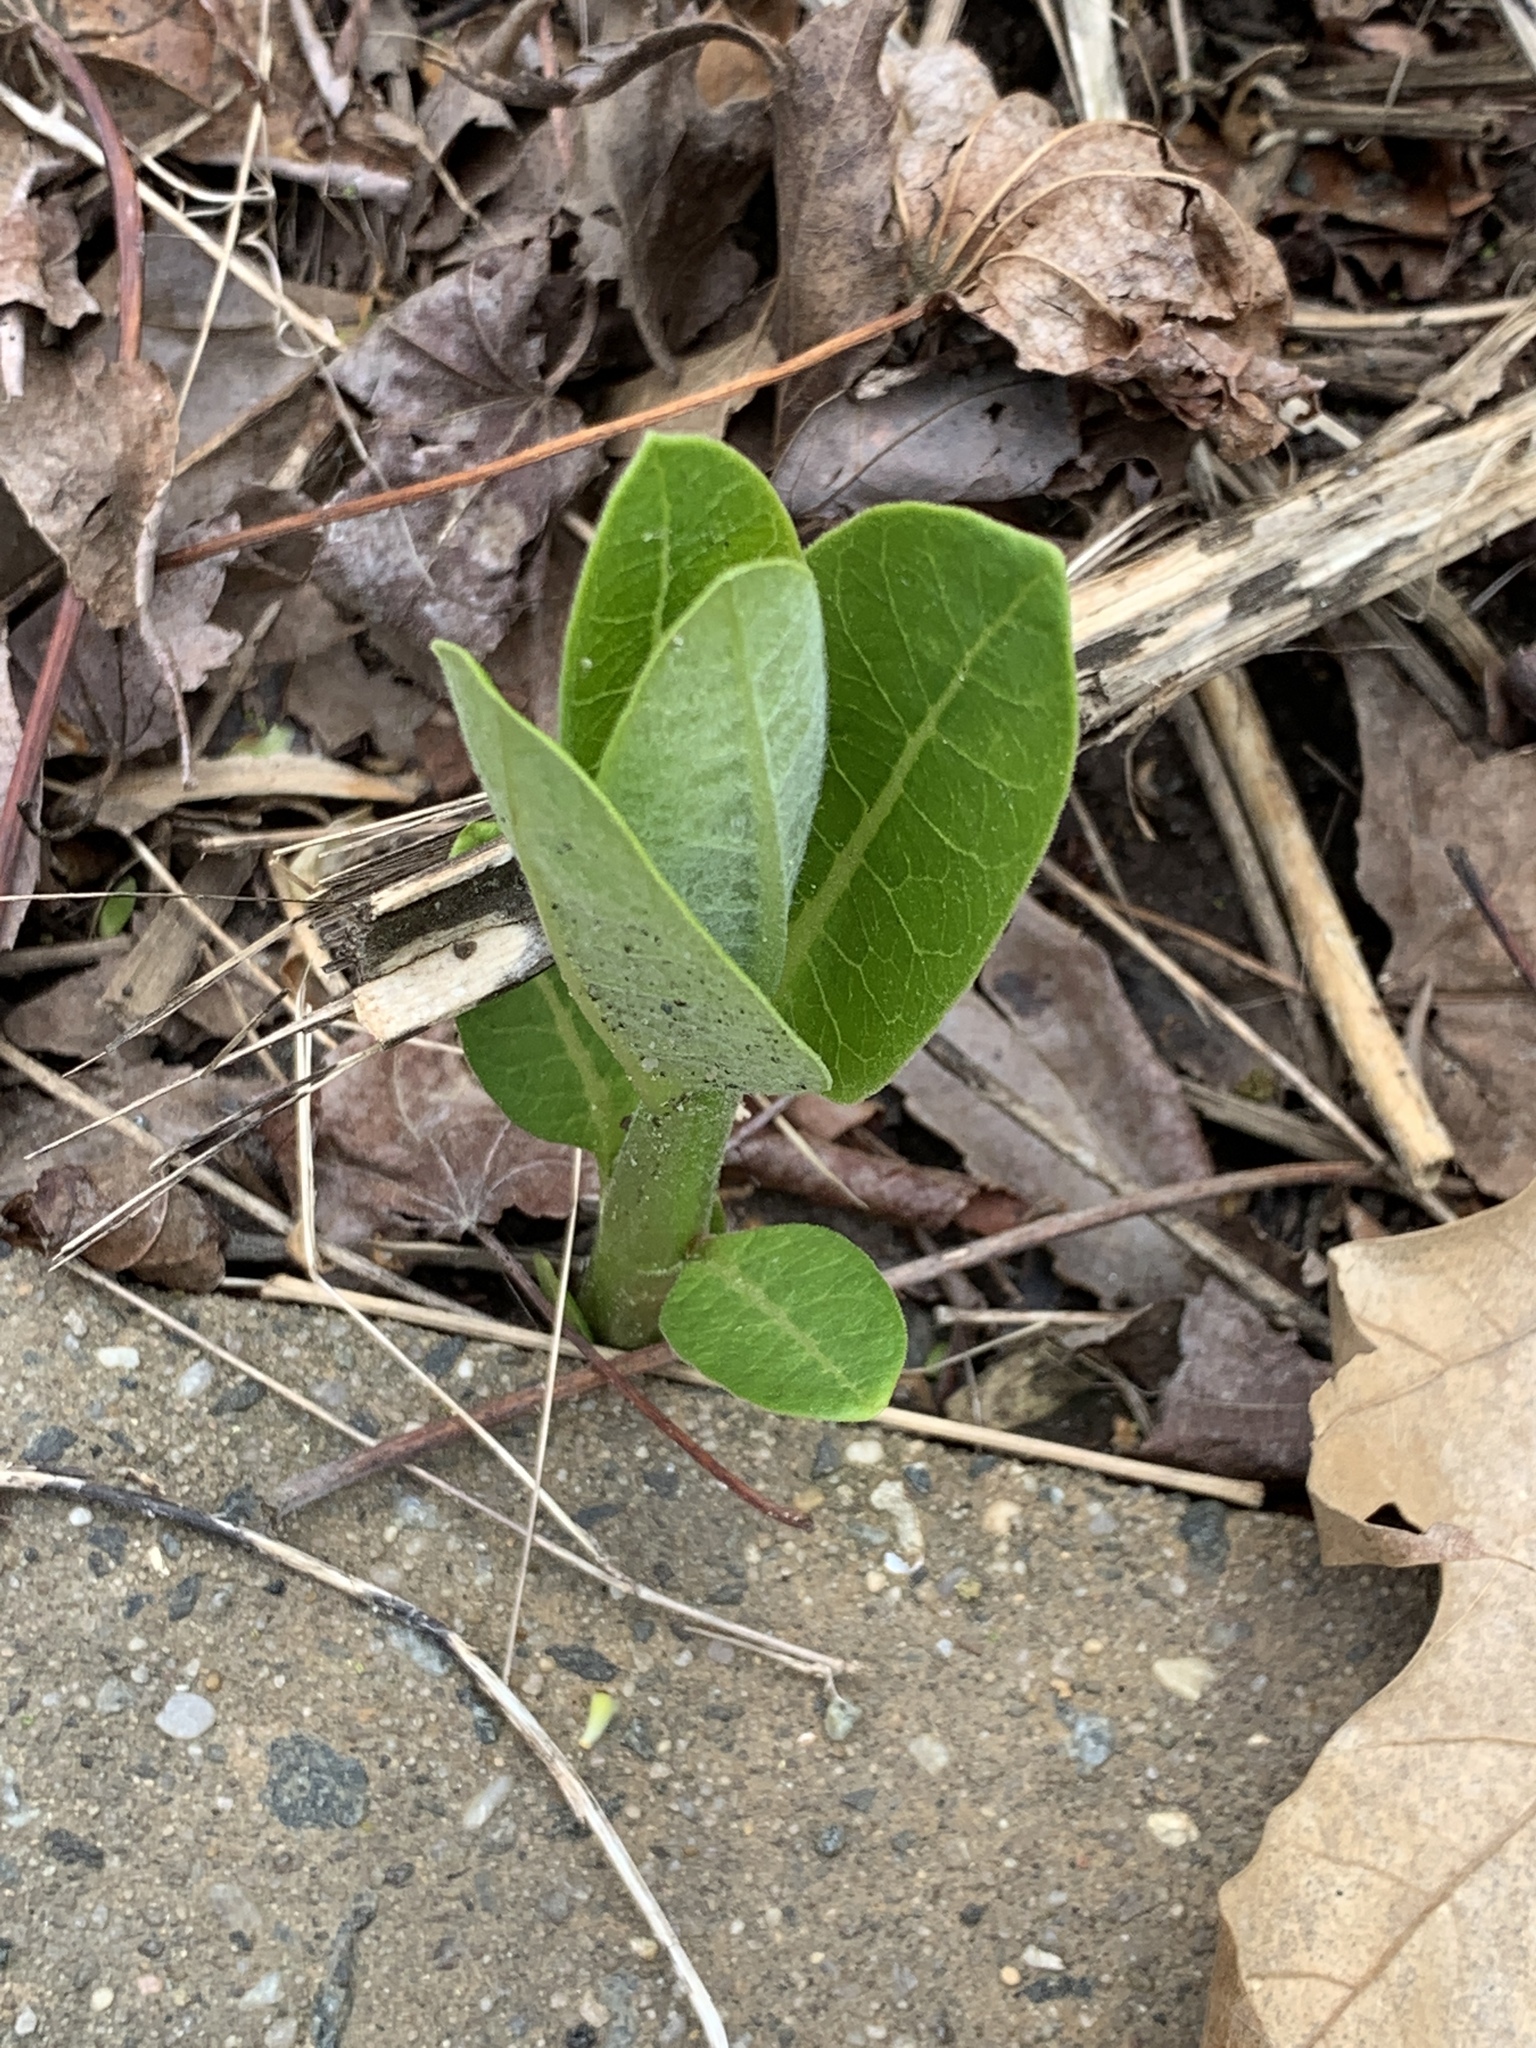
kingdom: Plantae
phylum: Tracheophyta
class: Magnoliopsida
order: Gentianales
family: Apocynaceae
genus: Asclepias
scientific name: Asclepias syriaca
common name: Common milkweed
